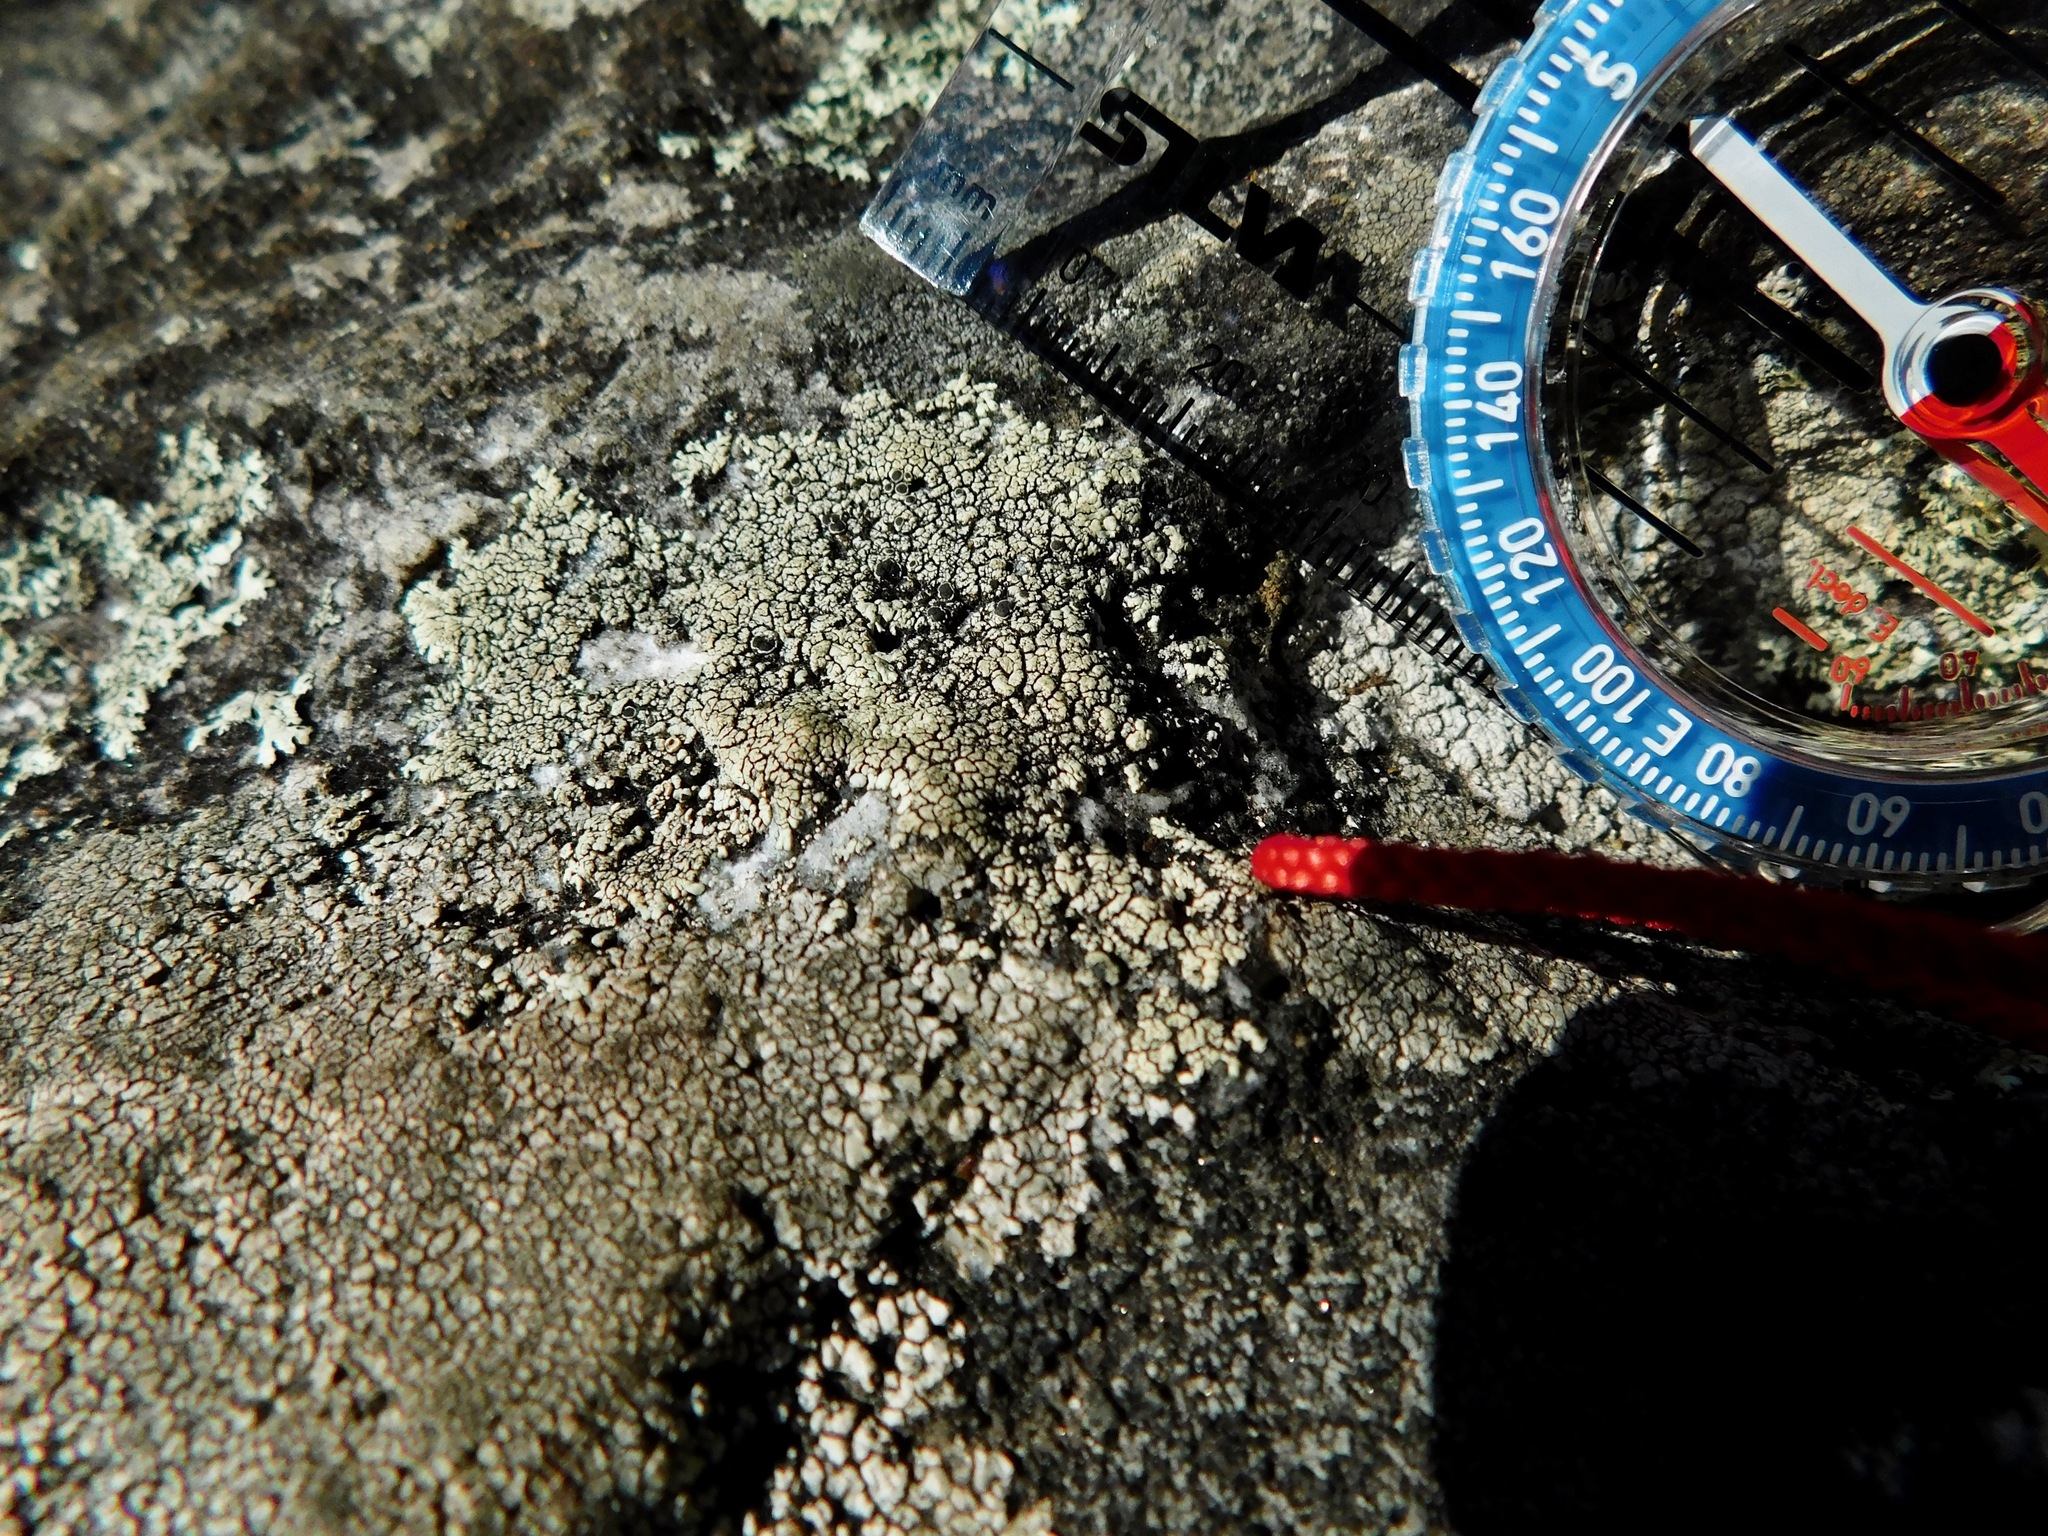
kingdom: Fungi
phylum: Ascomycota
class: Lecanoromycetes
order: Caliciales
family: Physciaceae
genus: Rinodina
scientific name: Rinodina tephraspis
